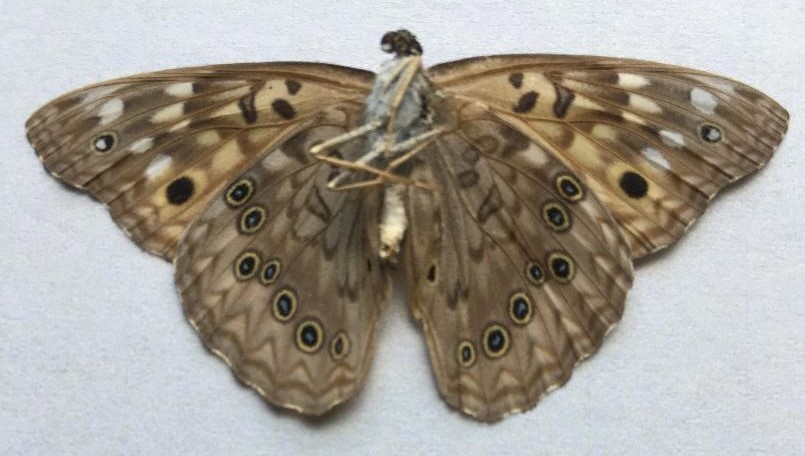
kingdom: Animalia
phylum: Arthropoda
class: Insecta
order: Lepidoptera
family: Nymphalidae
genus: Asterocampa
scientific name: Asterocampa celtis
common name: Hackberry emperor
